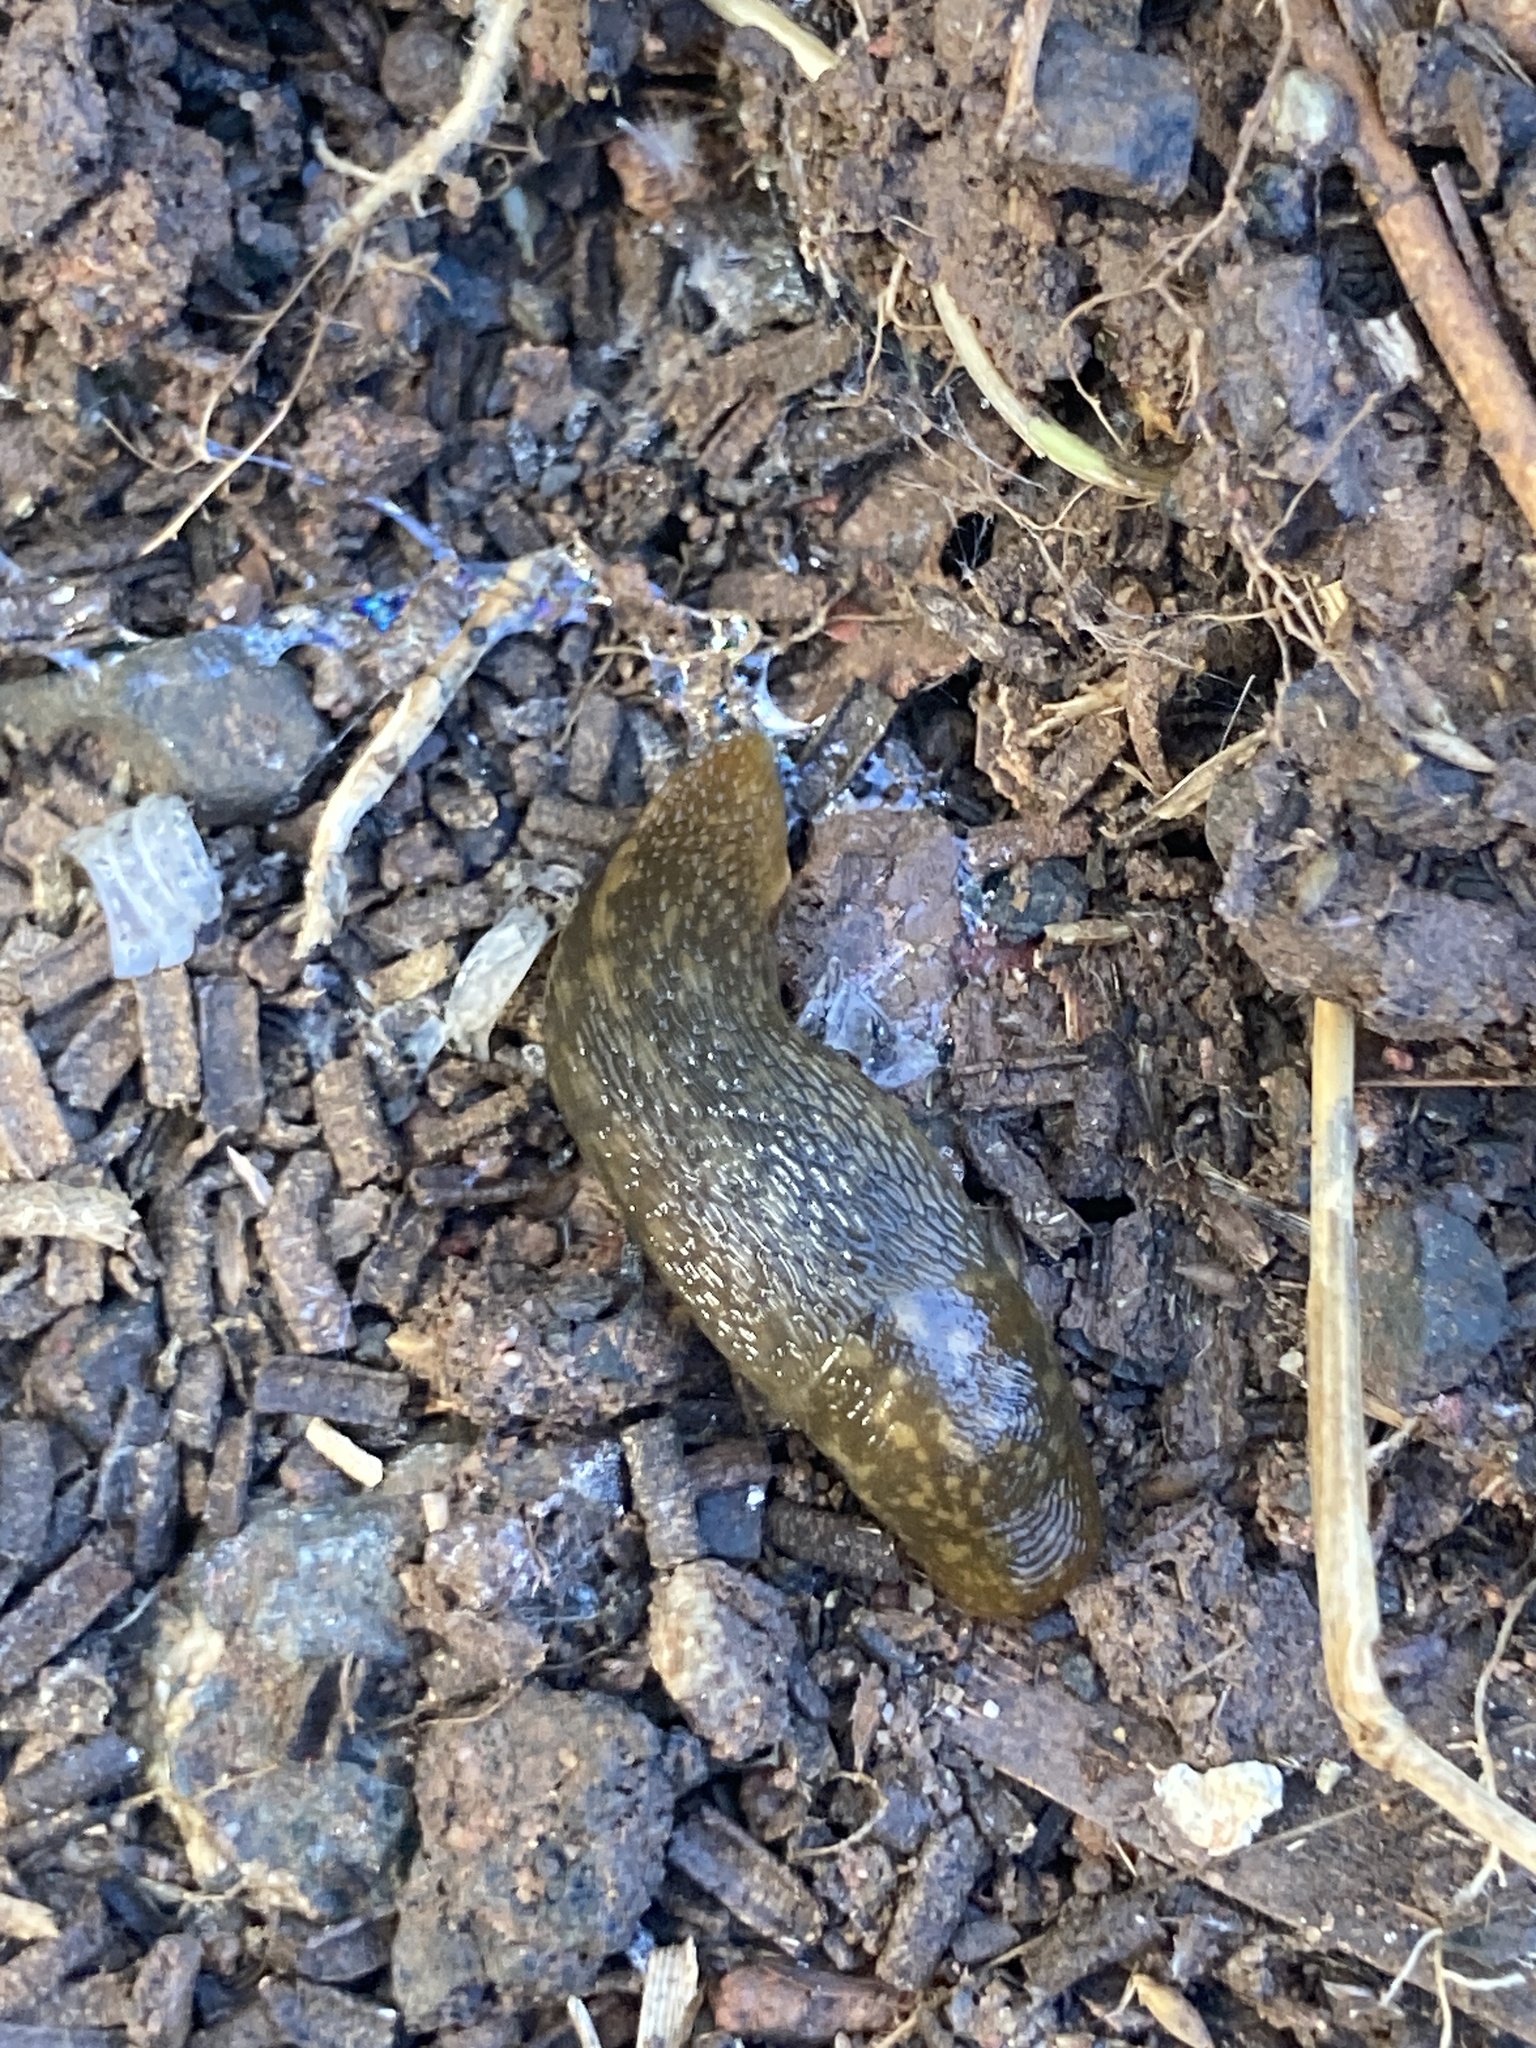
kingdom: Animalia
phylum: Mollusca
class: Gastropoda
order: Stylommatophora
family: Limacidae
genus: Limacus
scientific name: Limacus flavus
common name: Yellow gardenslug
